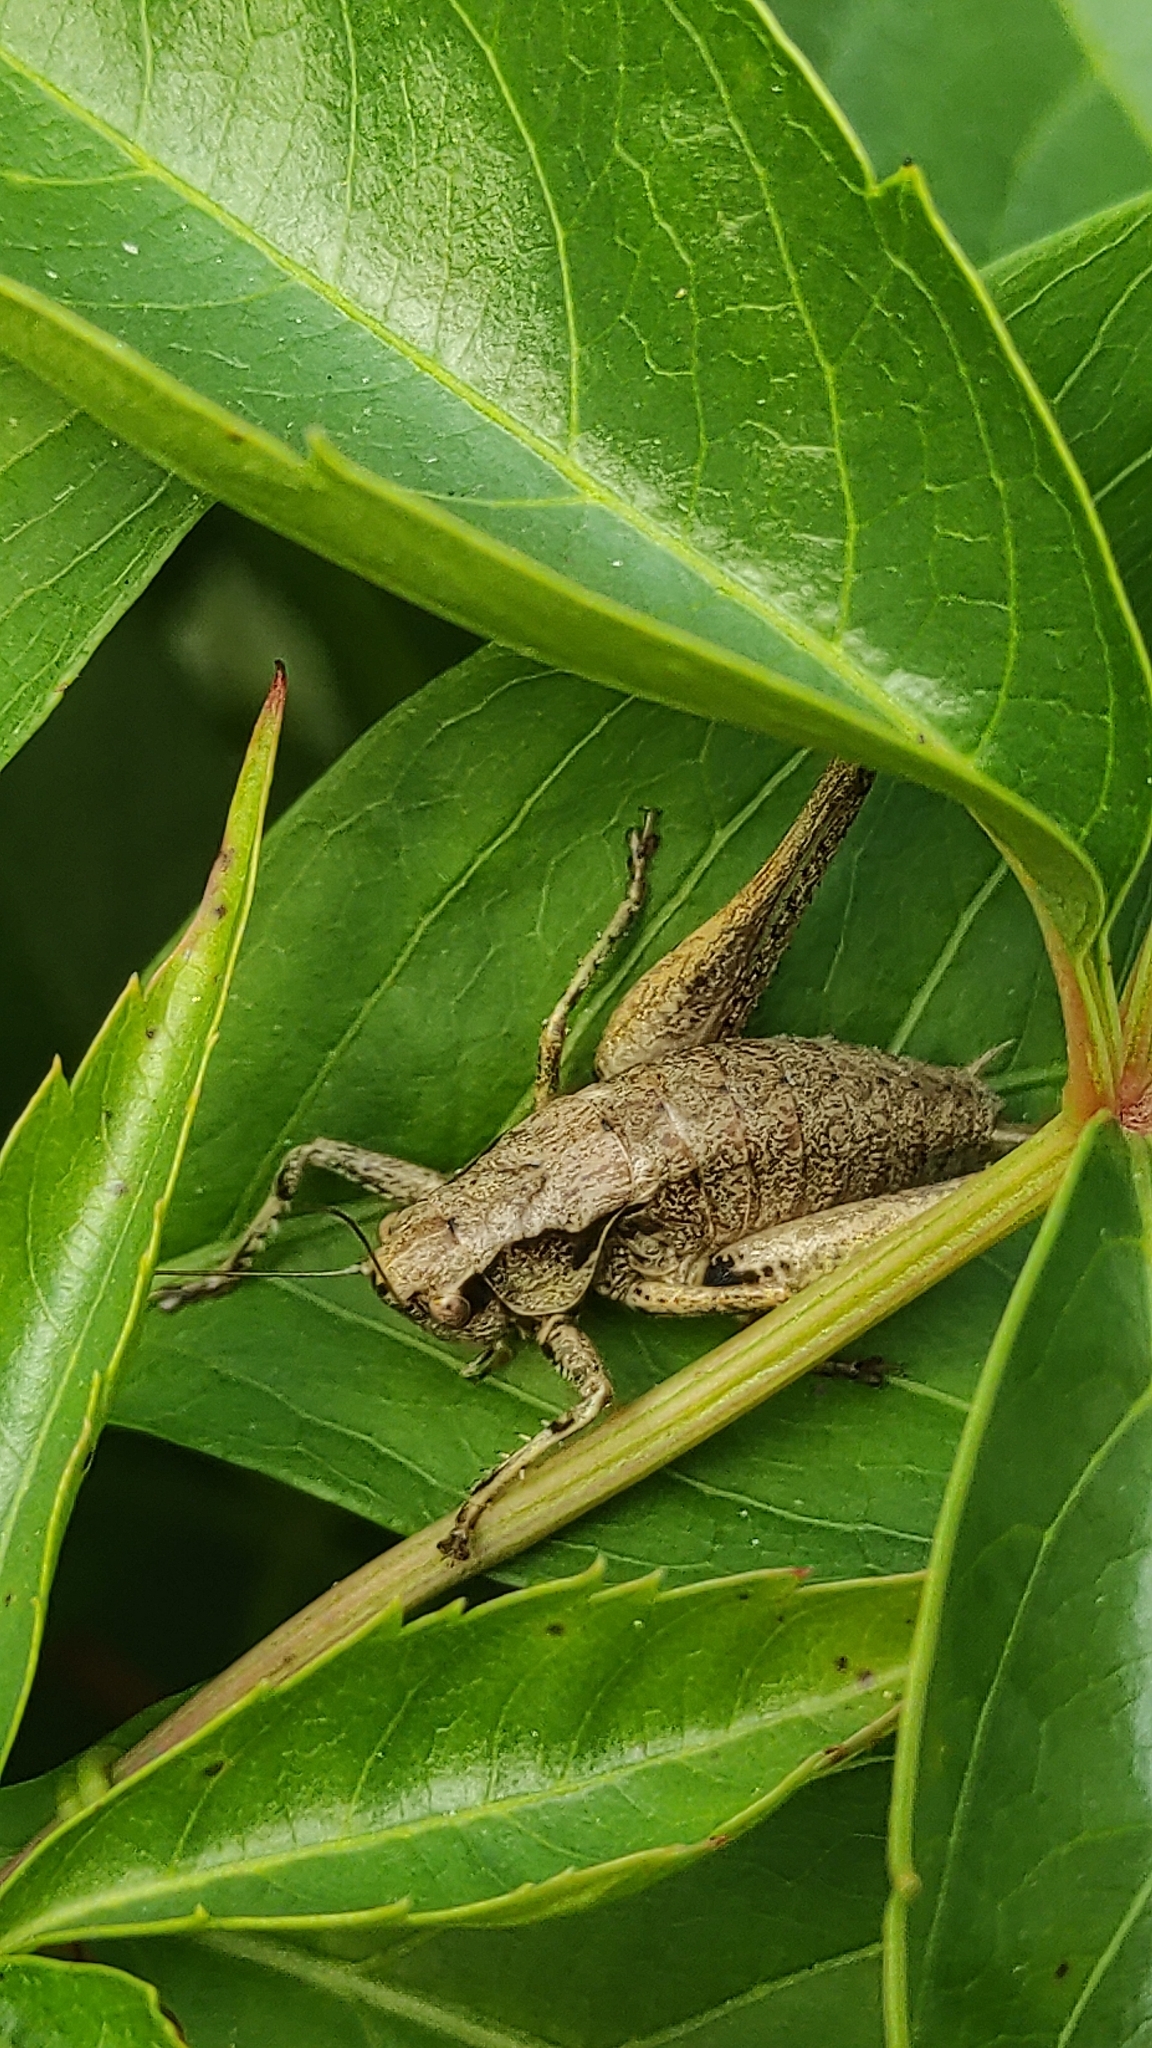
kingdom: Animalia
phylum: Arthropoda
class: Insecta
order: Orthoptera
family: Tettigoniidae
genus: Pholidoptera
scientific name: Pholidoptera griseoaptera
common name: Dark bush-cricket
